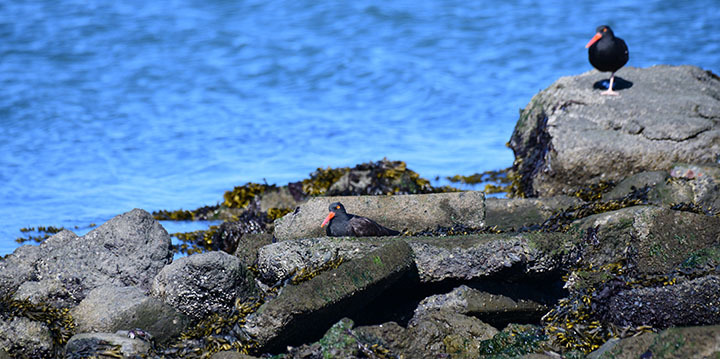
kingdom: Animalia
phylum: Chordata
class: Aves
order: Charadriiformes
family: Haematopodidae
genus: Haematopus
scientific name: Haematopus bachmani
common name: Black oystercatcher
